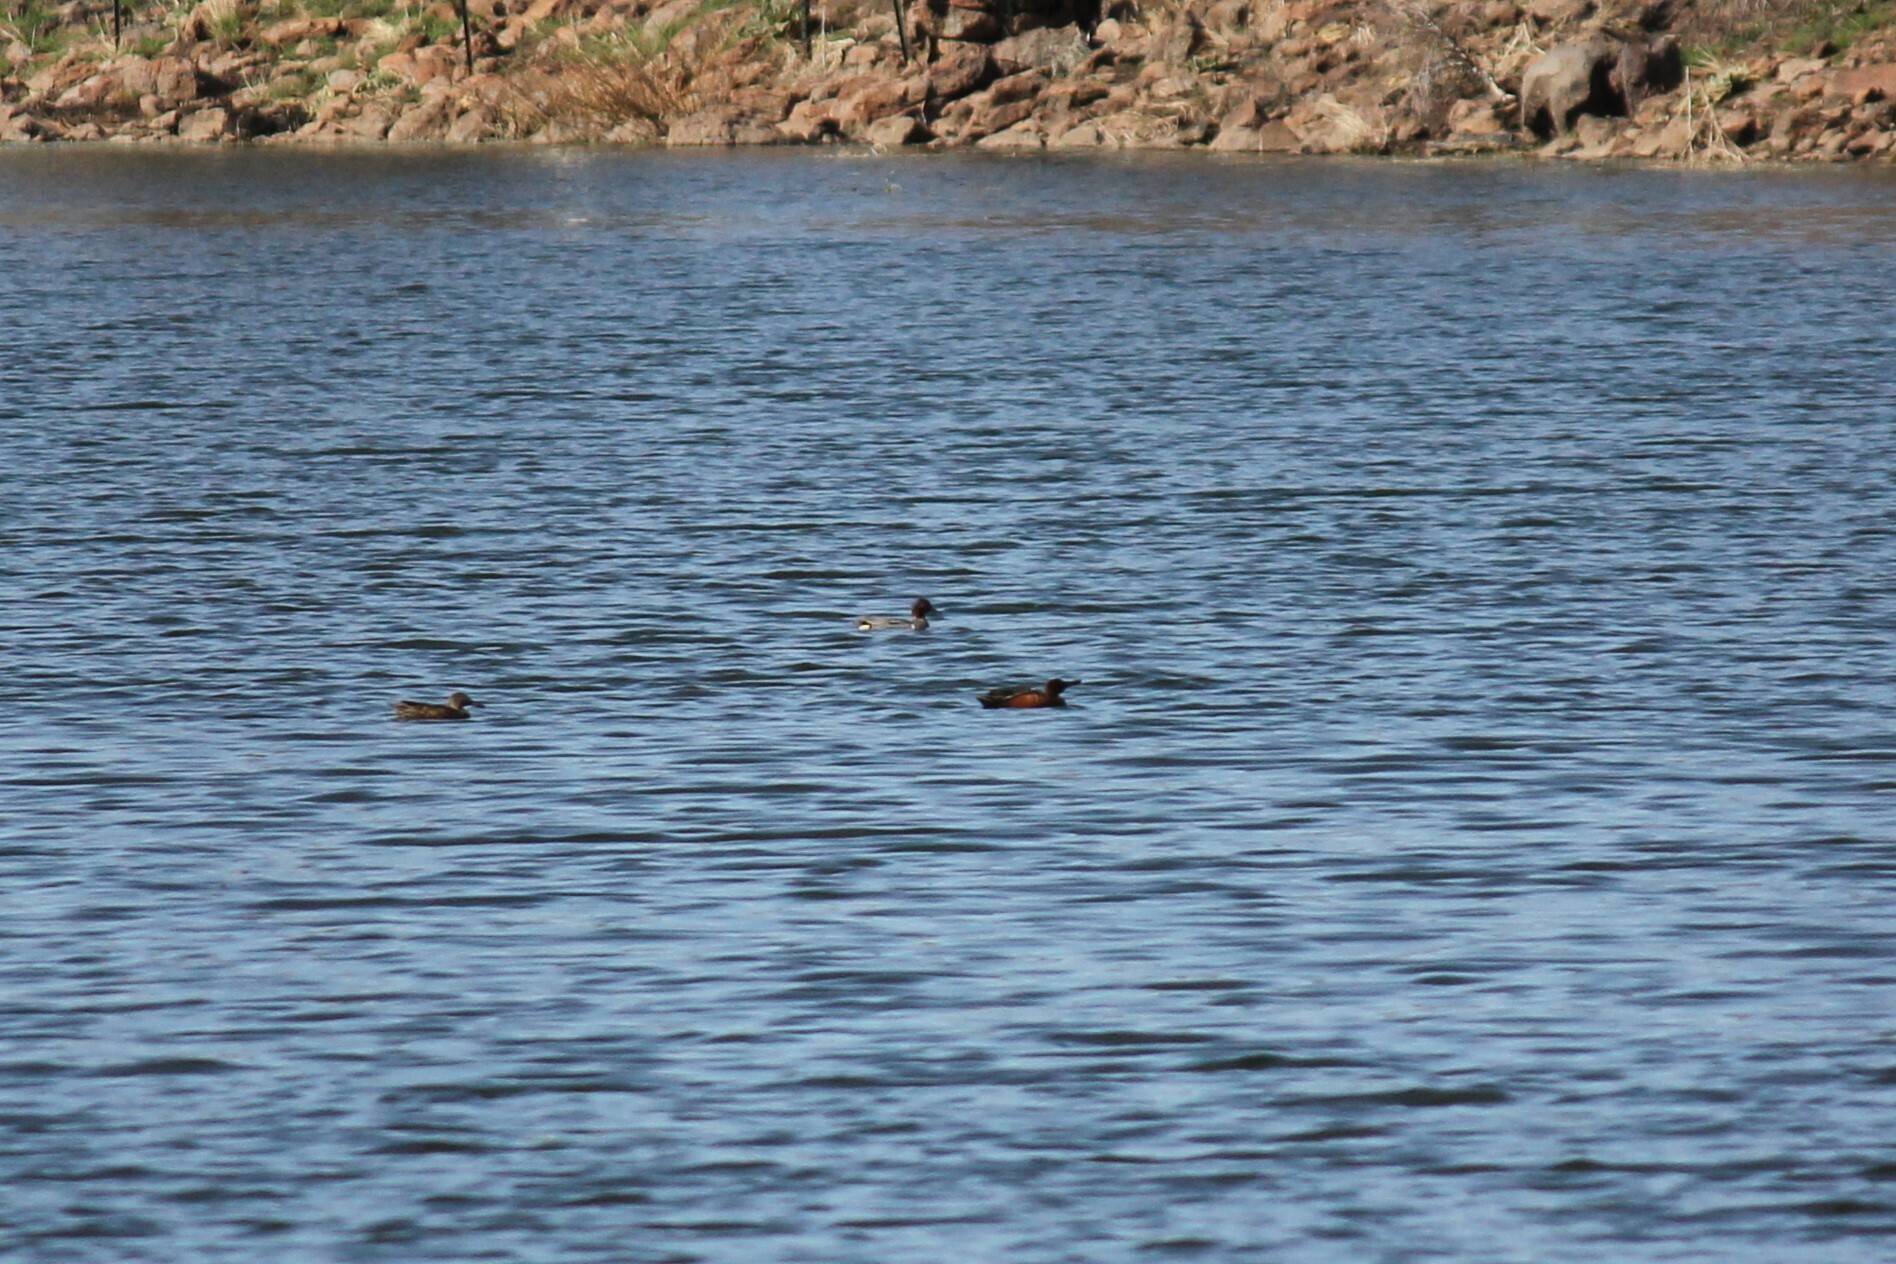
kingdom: Animalia
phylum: Chordata
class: Aves
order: Anseriformes
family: Anatidae
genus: Spatula
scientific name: Spatula cyanoptera
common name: Cinnamon teal
